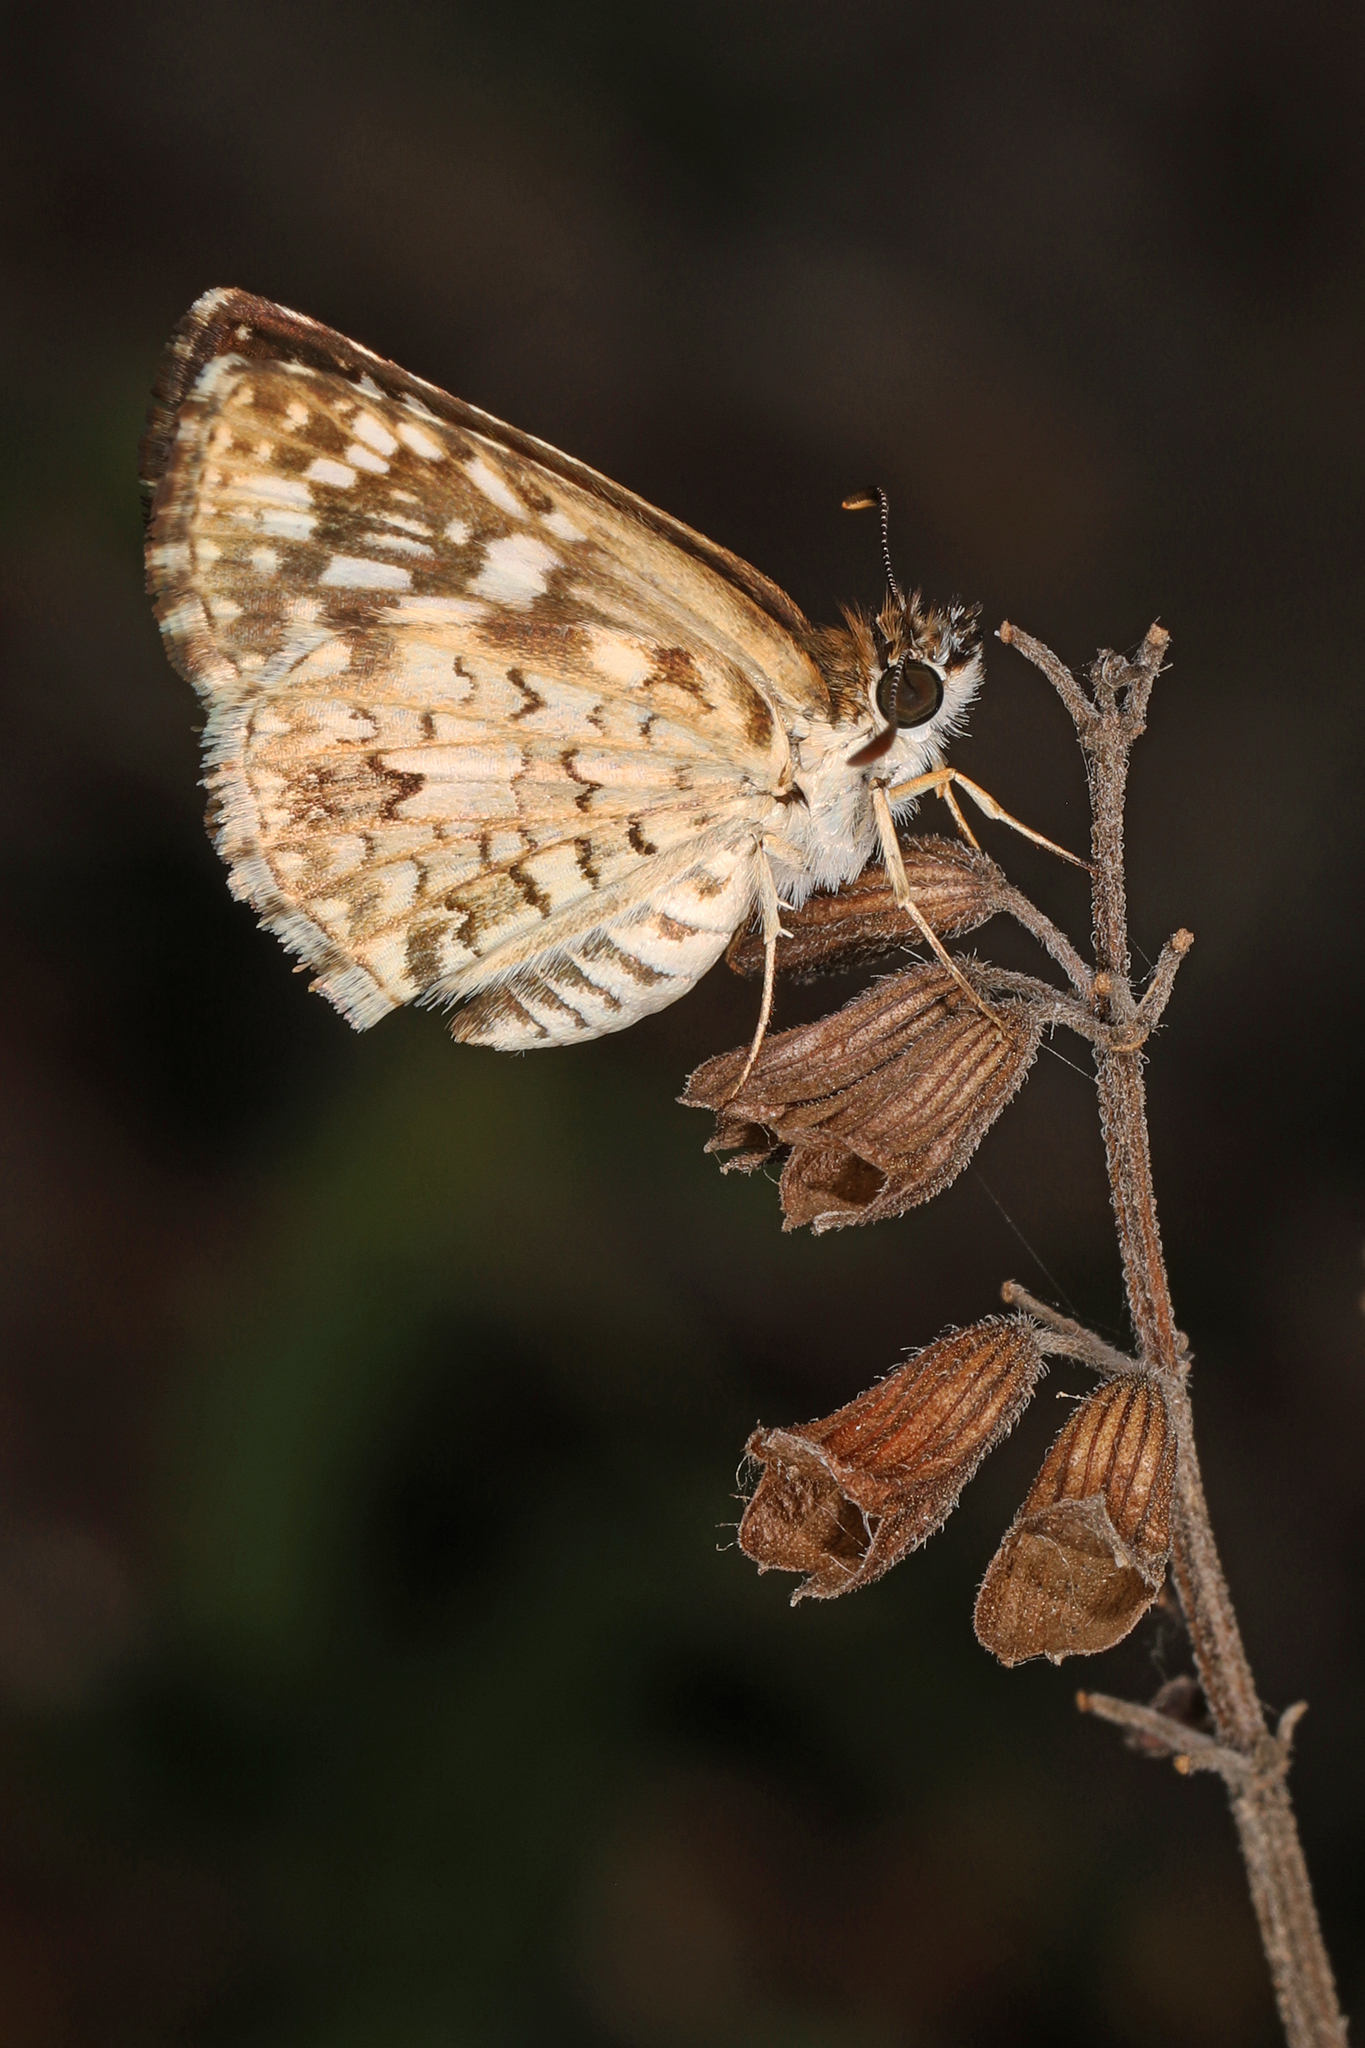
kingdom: Animalia
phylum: Arthropoda
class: Insecta
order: Lepidoptera
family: Hesperiidae
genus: Pyrgus
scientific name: Pyrgus oileus
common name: Tropical checkered-skipper
